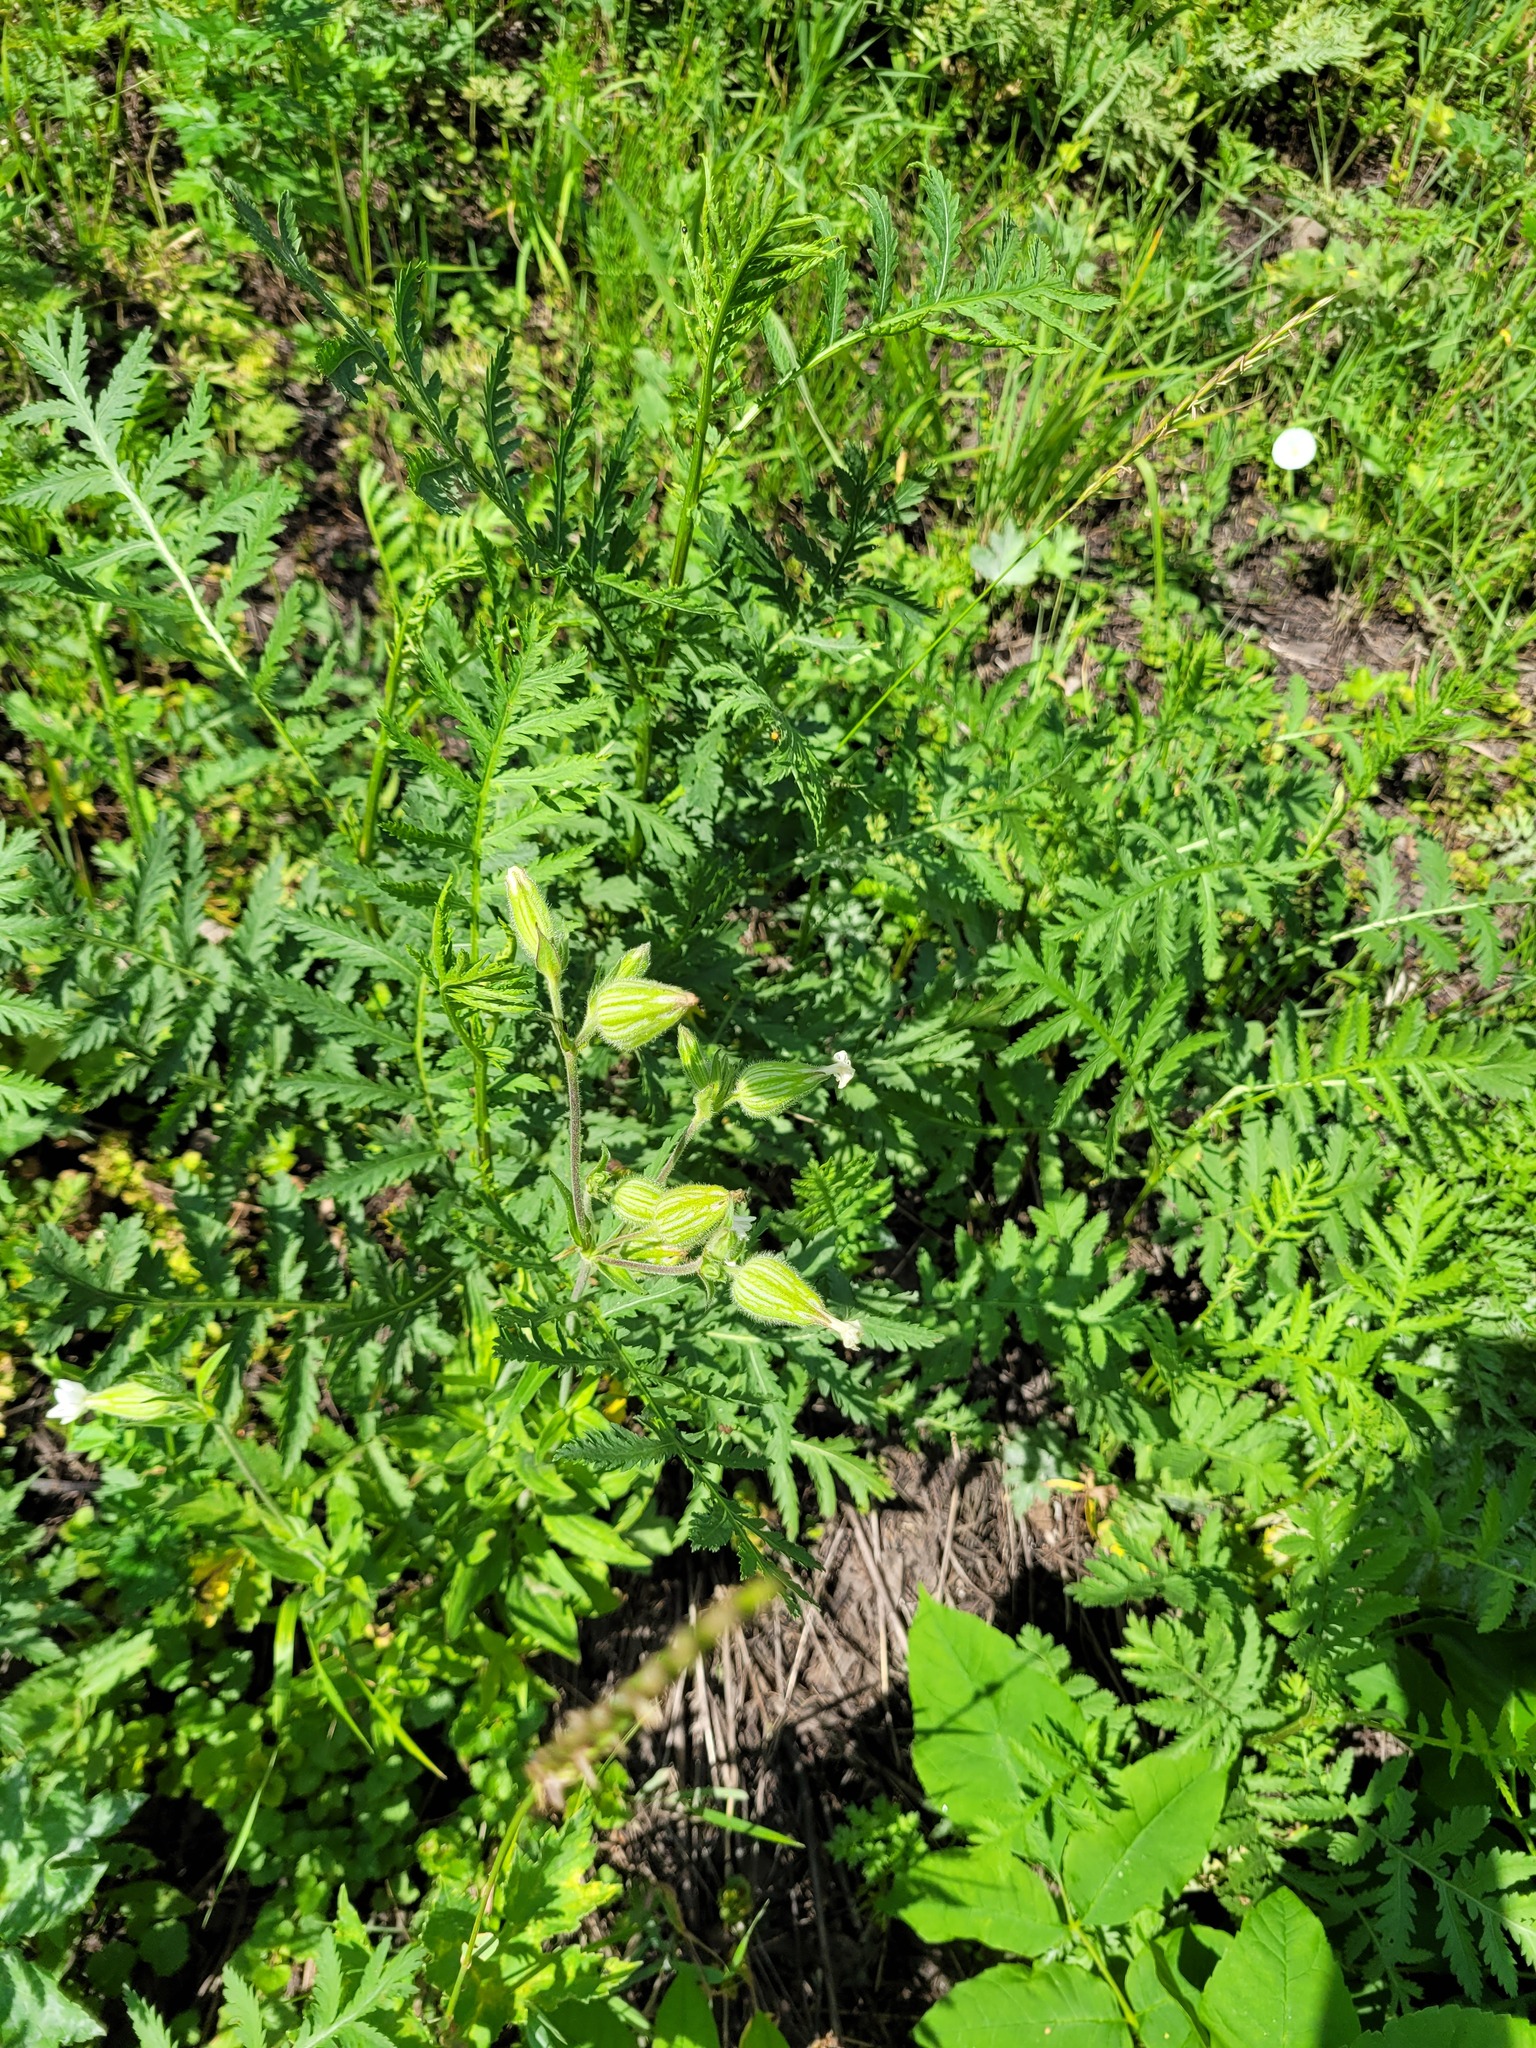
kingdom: Plantae
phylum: Tracheophyta
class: Magnoliopsida
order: Caryophyllales
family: Caryophyllaceae
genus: Silene
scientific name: Silene latifolia
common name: White campion
